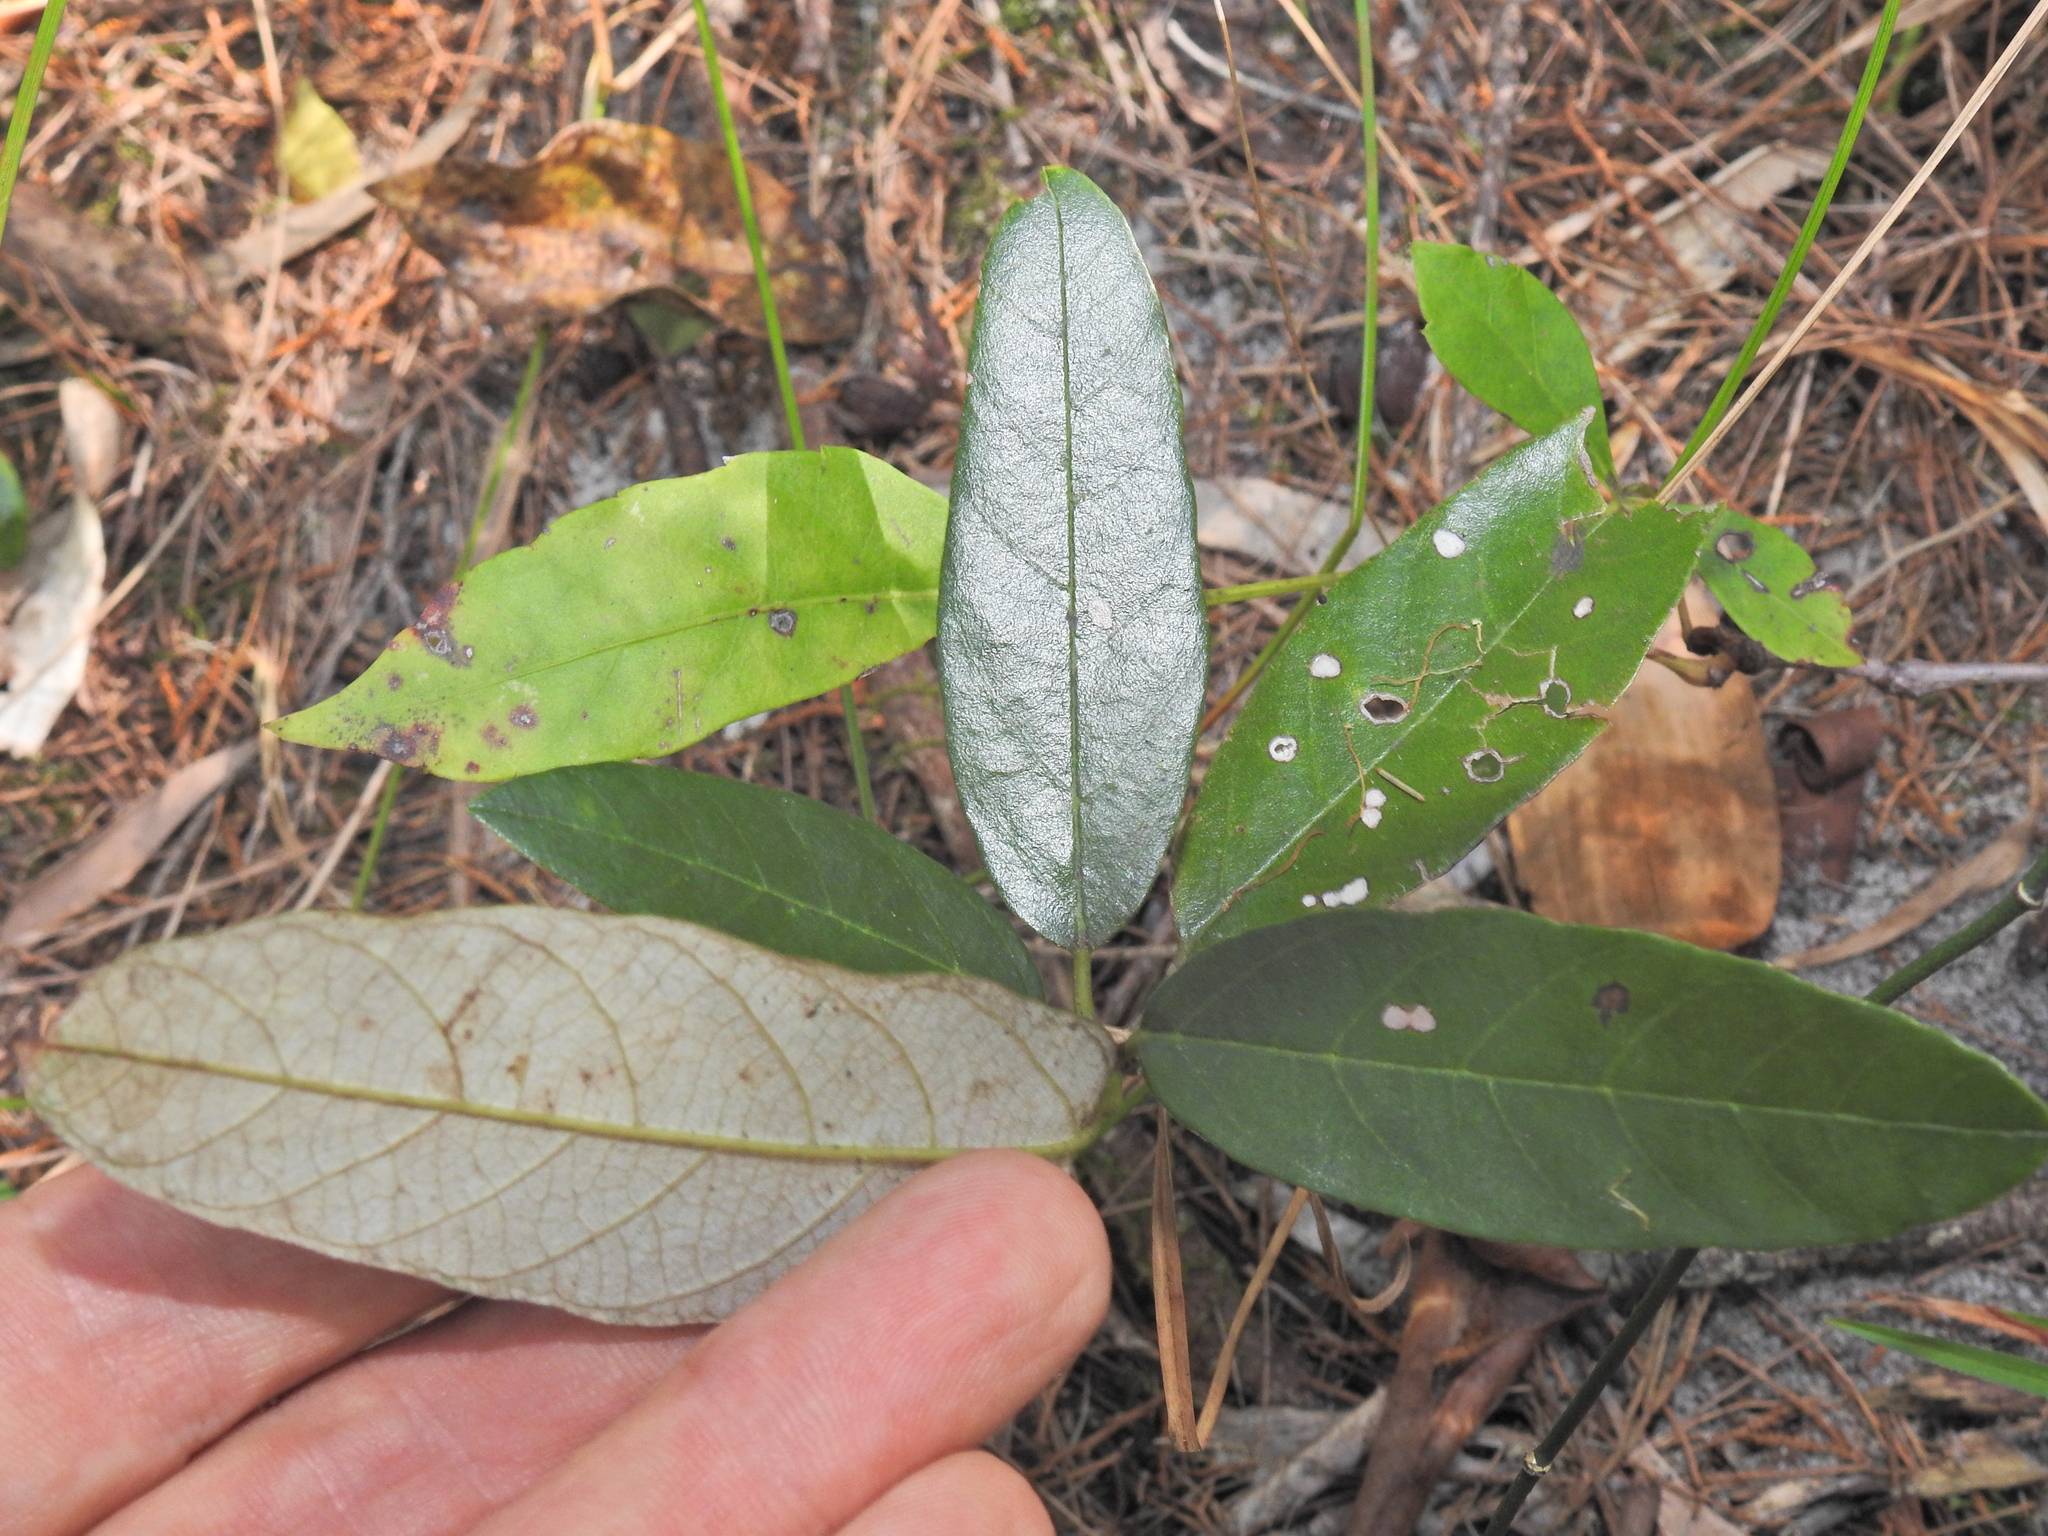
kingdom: Plantae
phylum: Tracheophyta
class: Magnoliopsida
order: Rosales
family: Rhamnaceae
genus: Alphitonia
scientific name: Alphitonia excelsa
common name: Red ash
